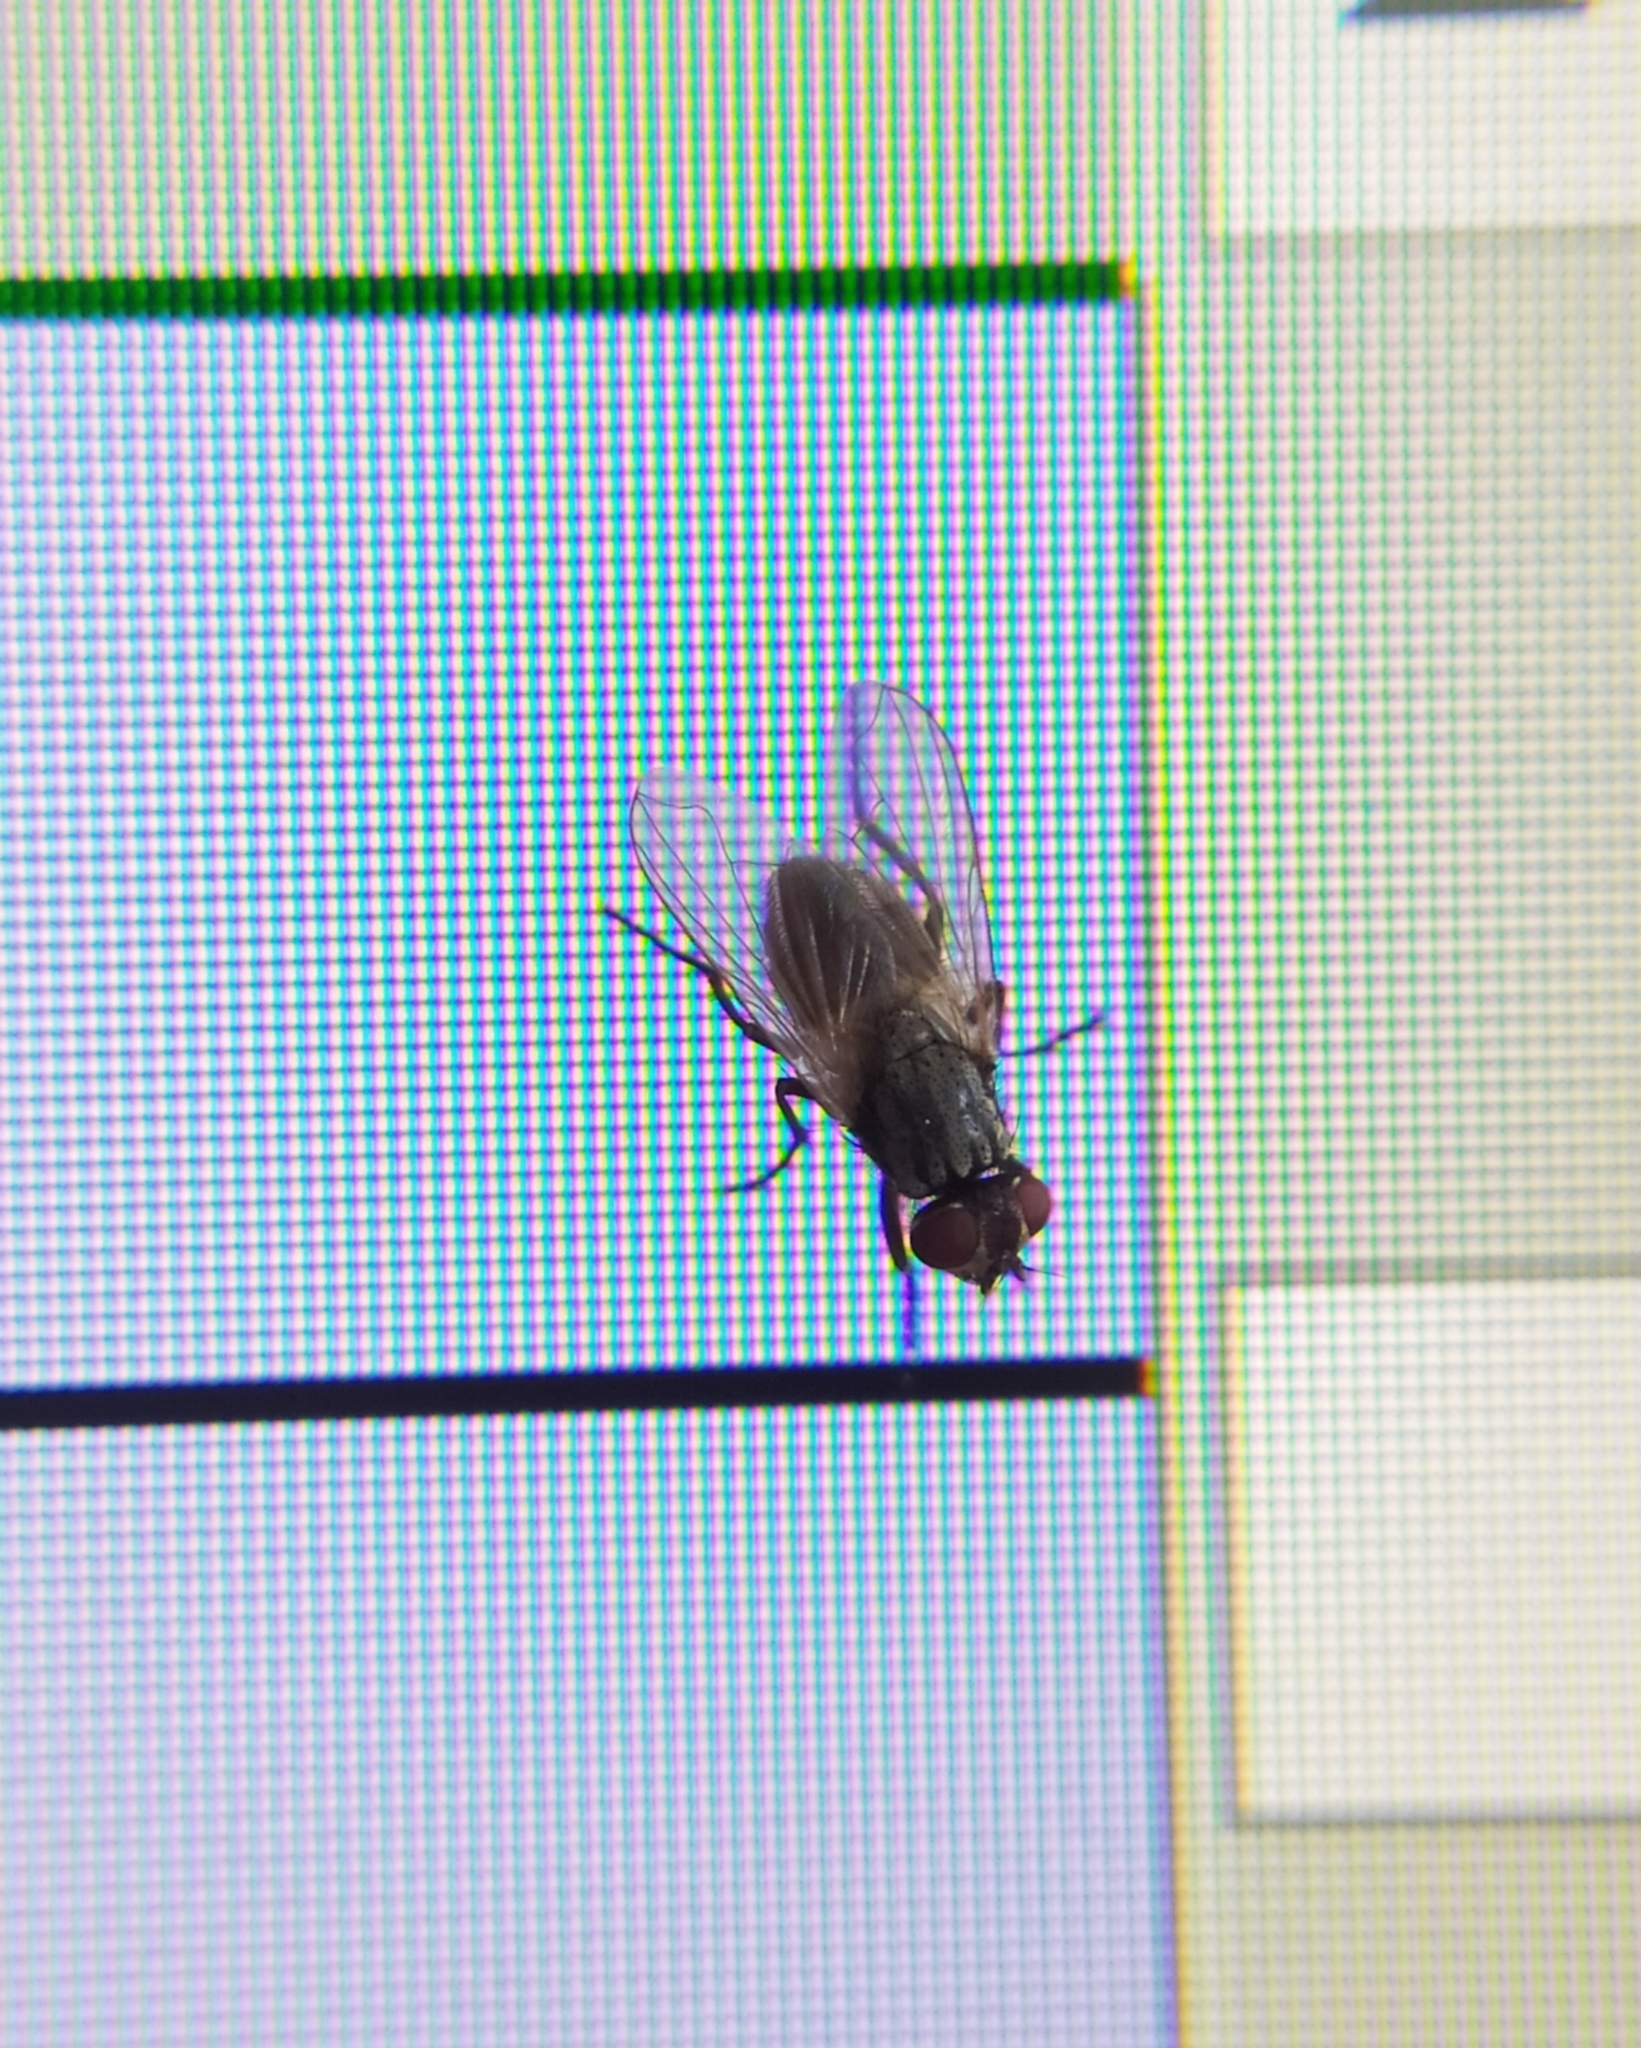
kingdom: Animalia
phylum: Arthropoda
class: Insecta
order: Diptera
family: Muscidae
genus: Musca
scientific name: Musca domestica
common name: House fly
